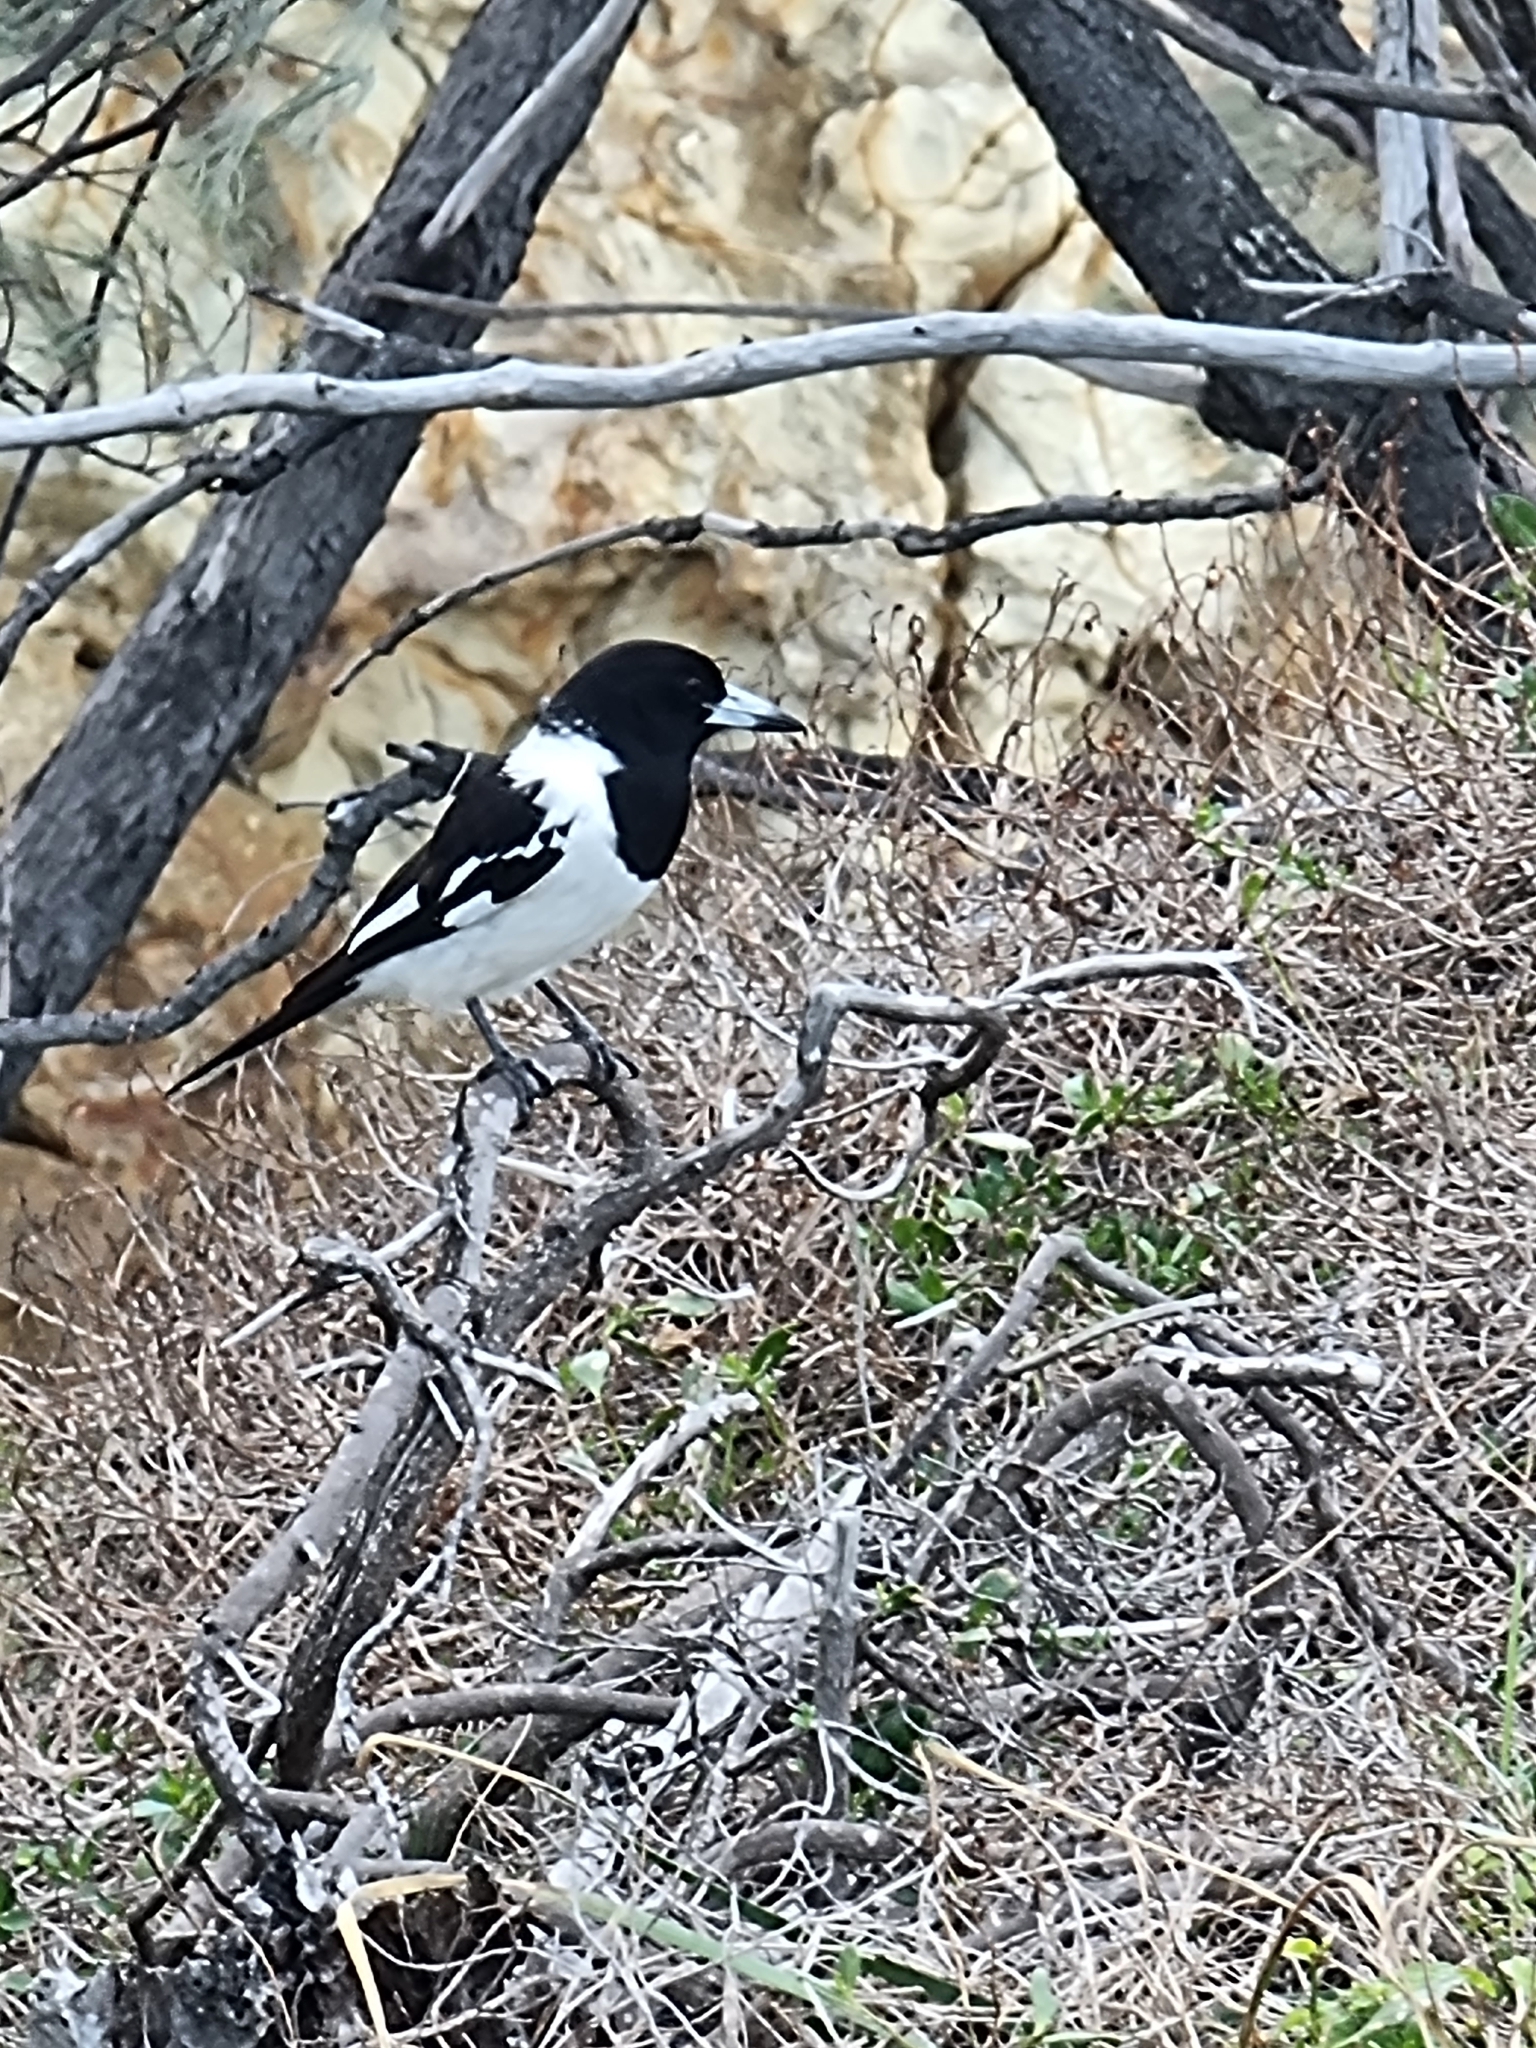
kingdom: Animalia
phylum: Chordata
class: Aves
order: Passeriformes
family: Cracticidae
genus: Cracticus
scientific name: Cracticus nigrogularis
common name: Pied butcherbird
